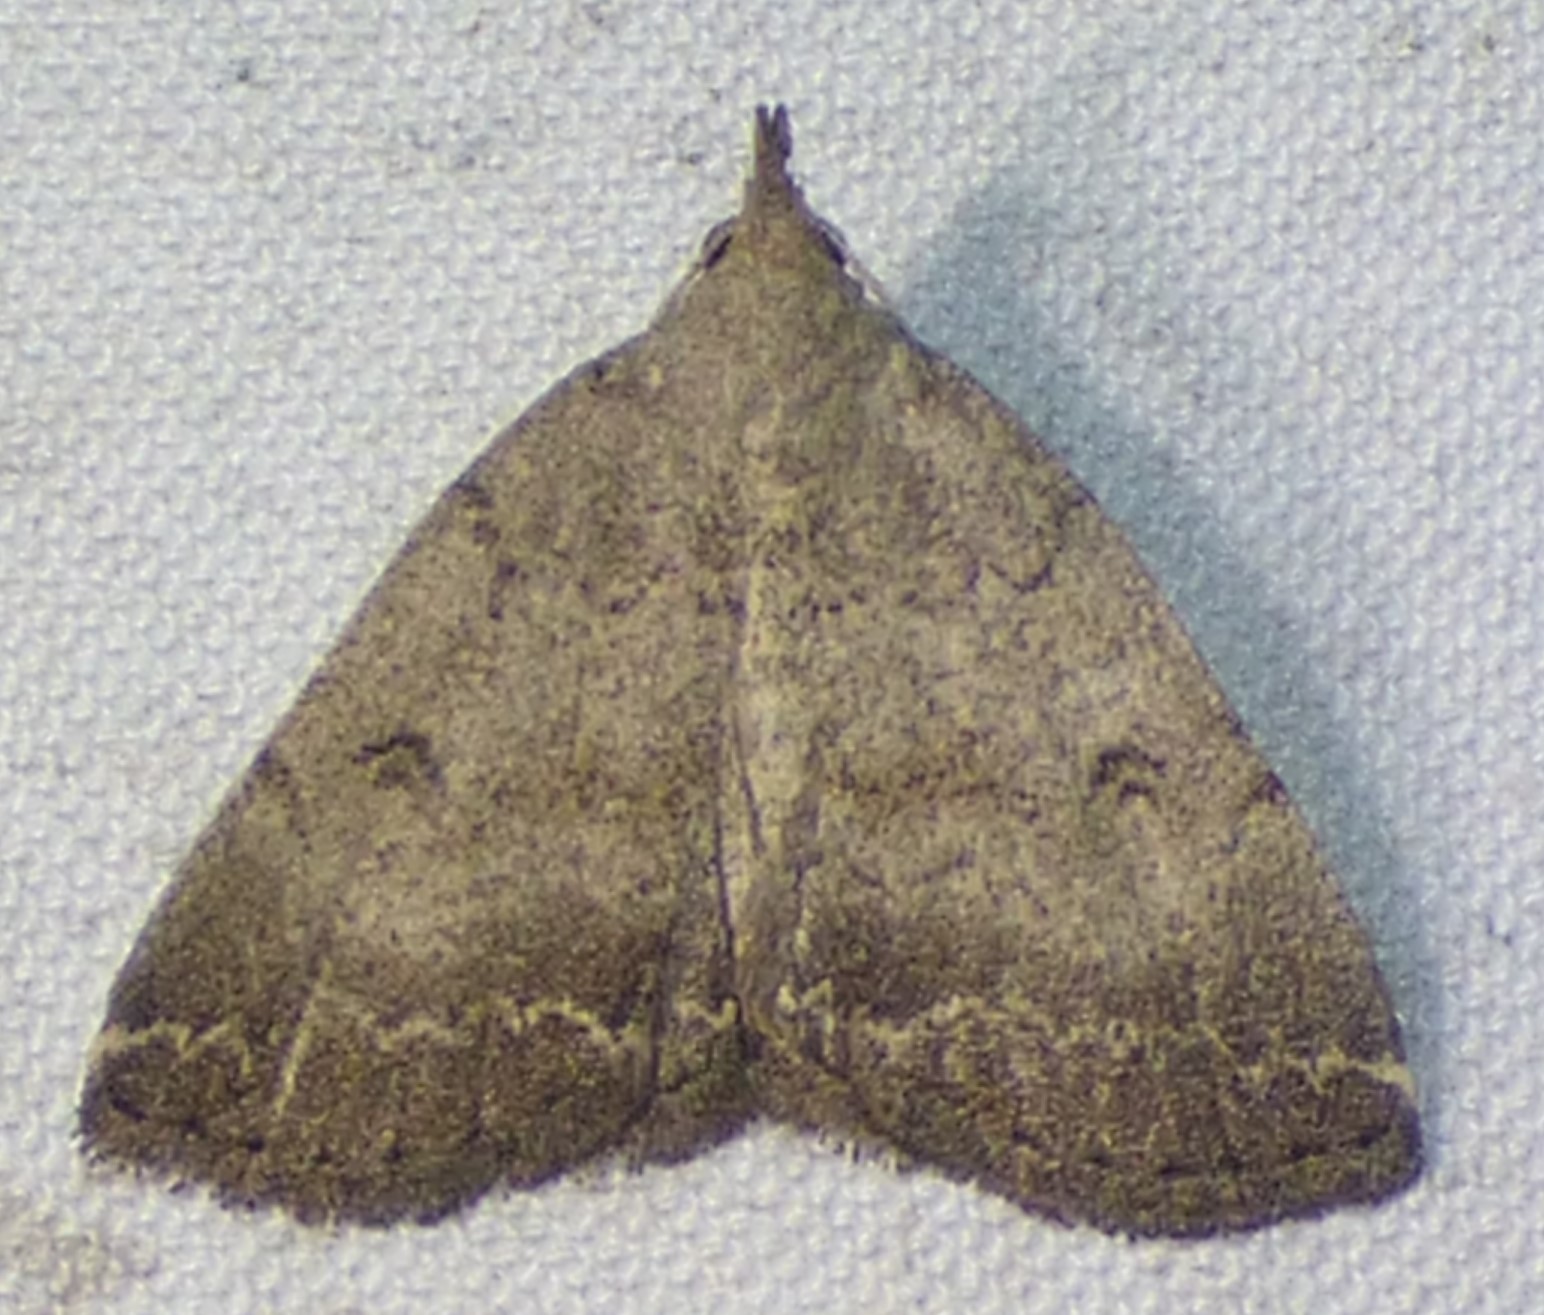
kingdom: Animalia
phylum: Arthropoda
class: Insecta
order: Lepidoptera
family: Erebidae
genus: Zanclognatha
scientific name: Zanclognatha theralis
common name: Flagged fan-foot
